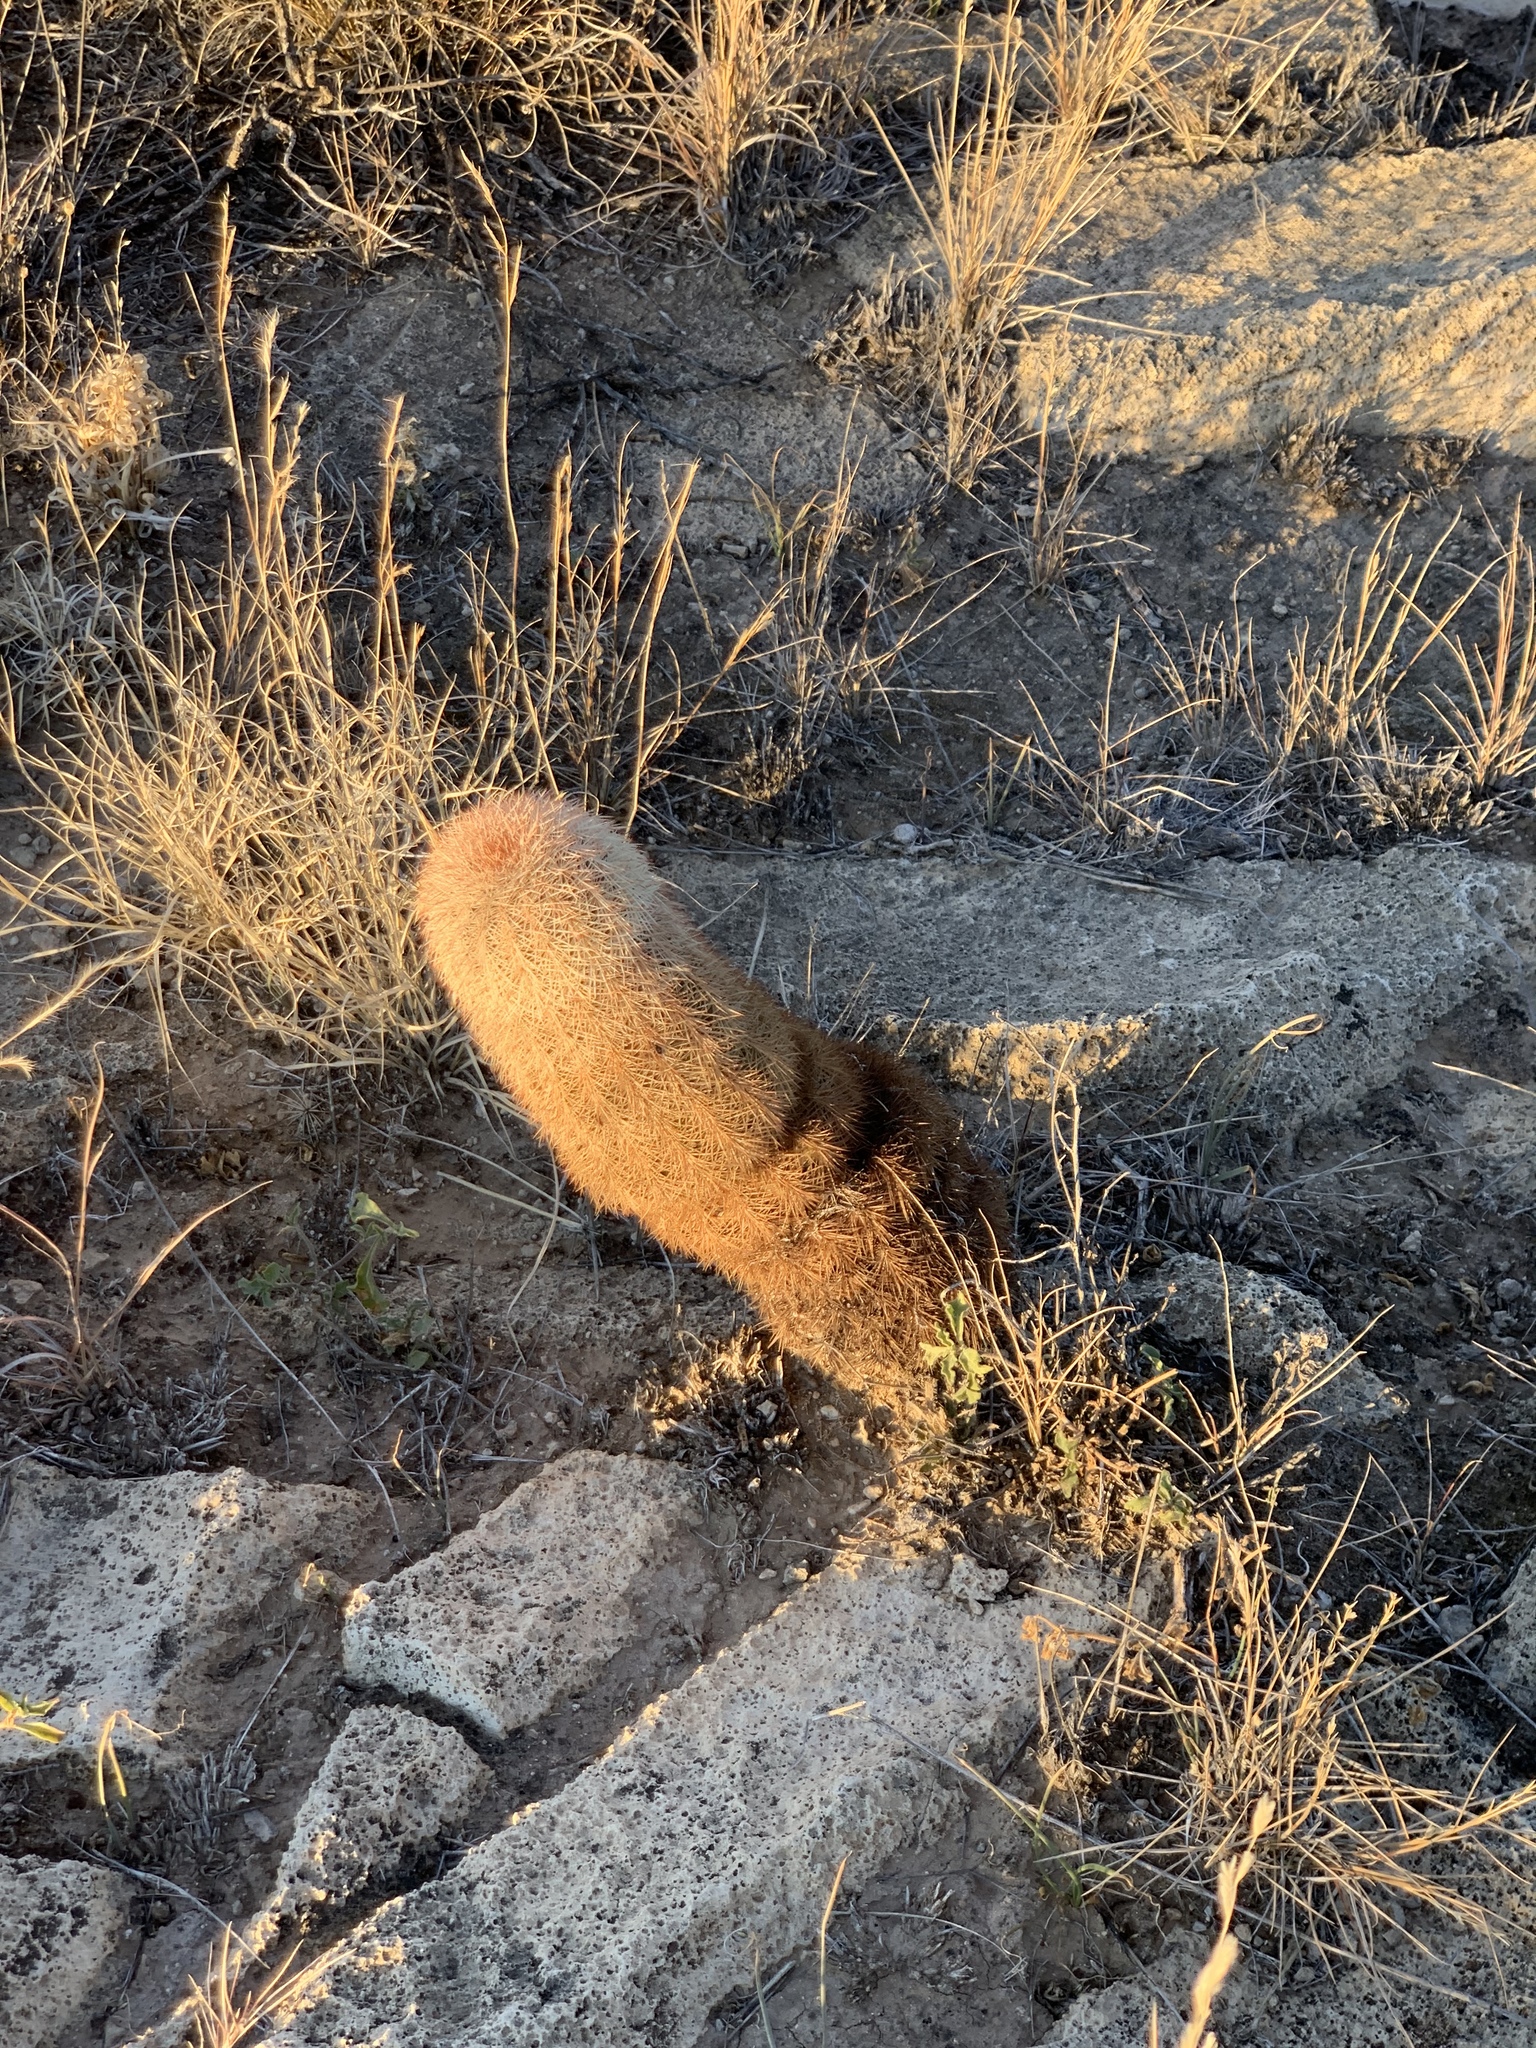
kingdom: Plantae
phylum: Tracheophyta
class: Magnoliopsida
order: Caryophyllales
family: Cactaceae
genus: Echinocereus
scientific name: Echinocereus dasyacanthus
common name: Spiny hedgehog cactus
